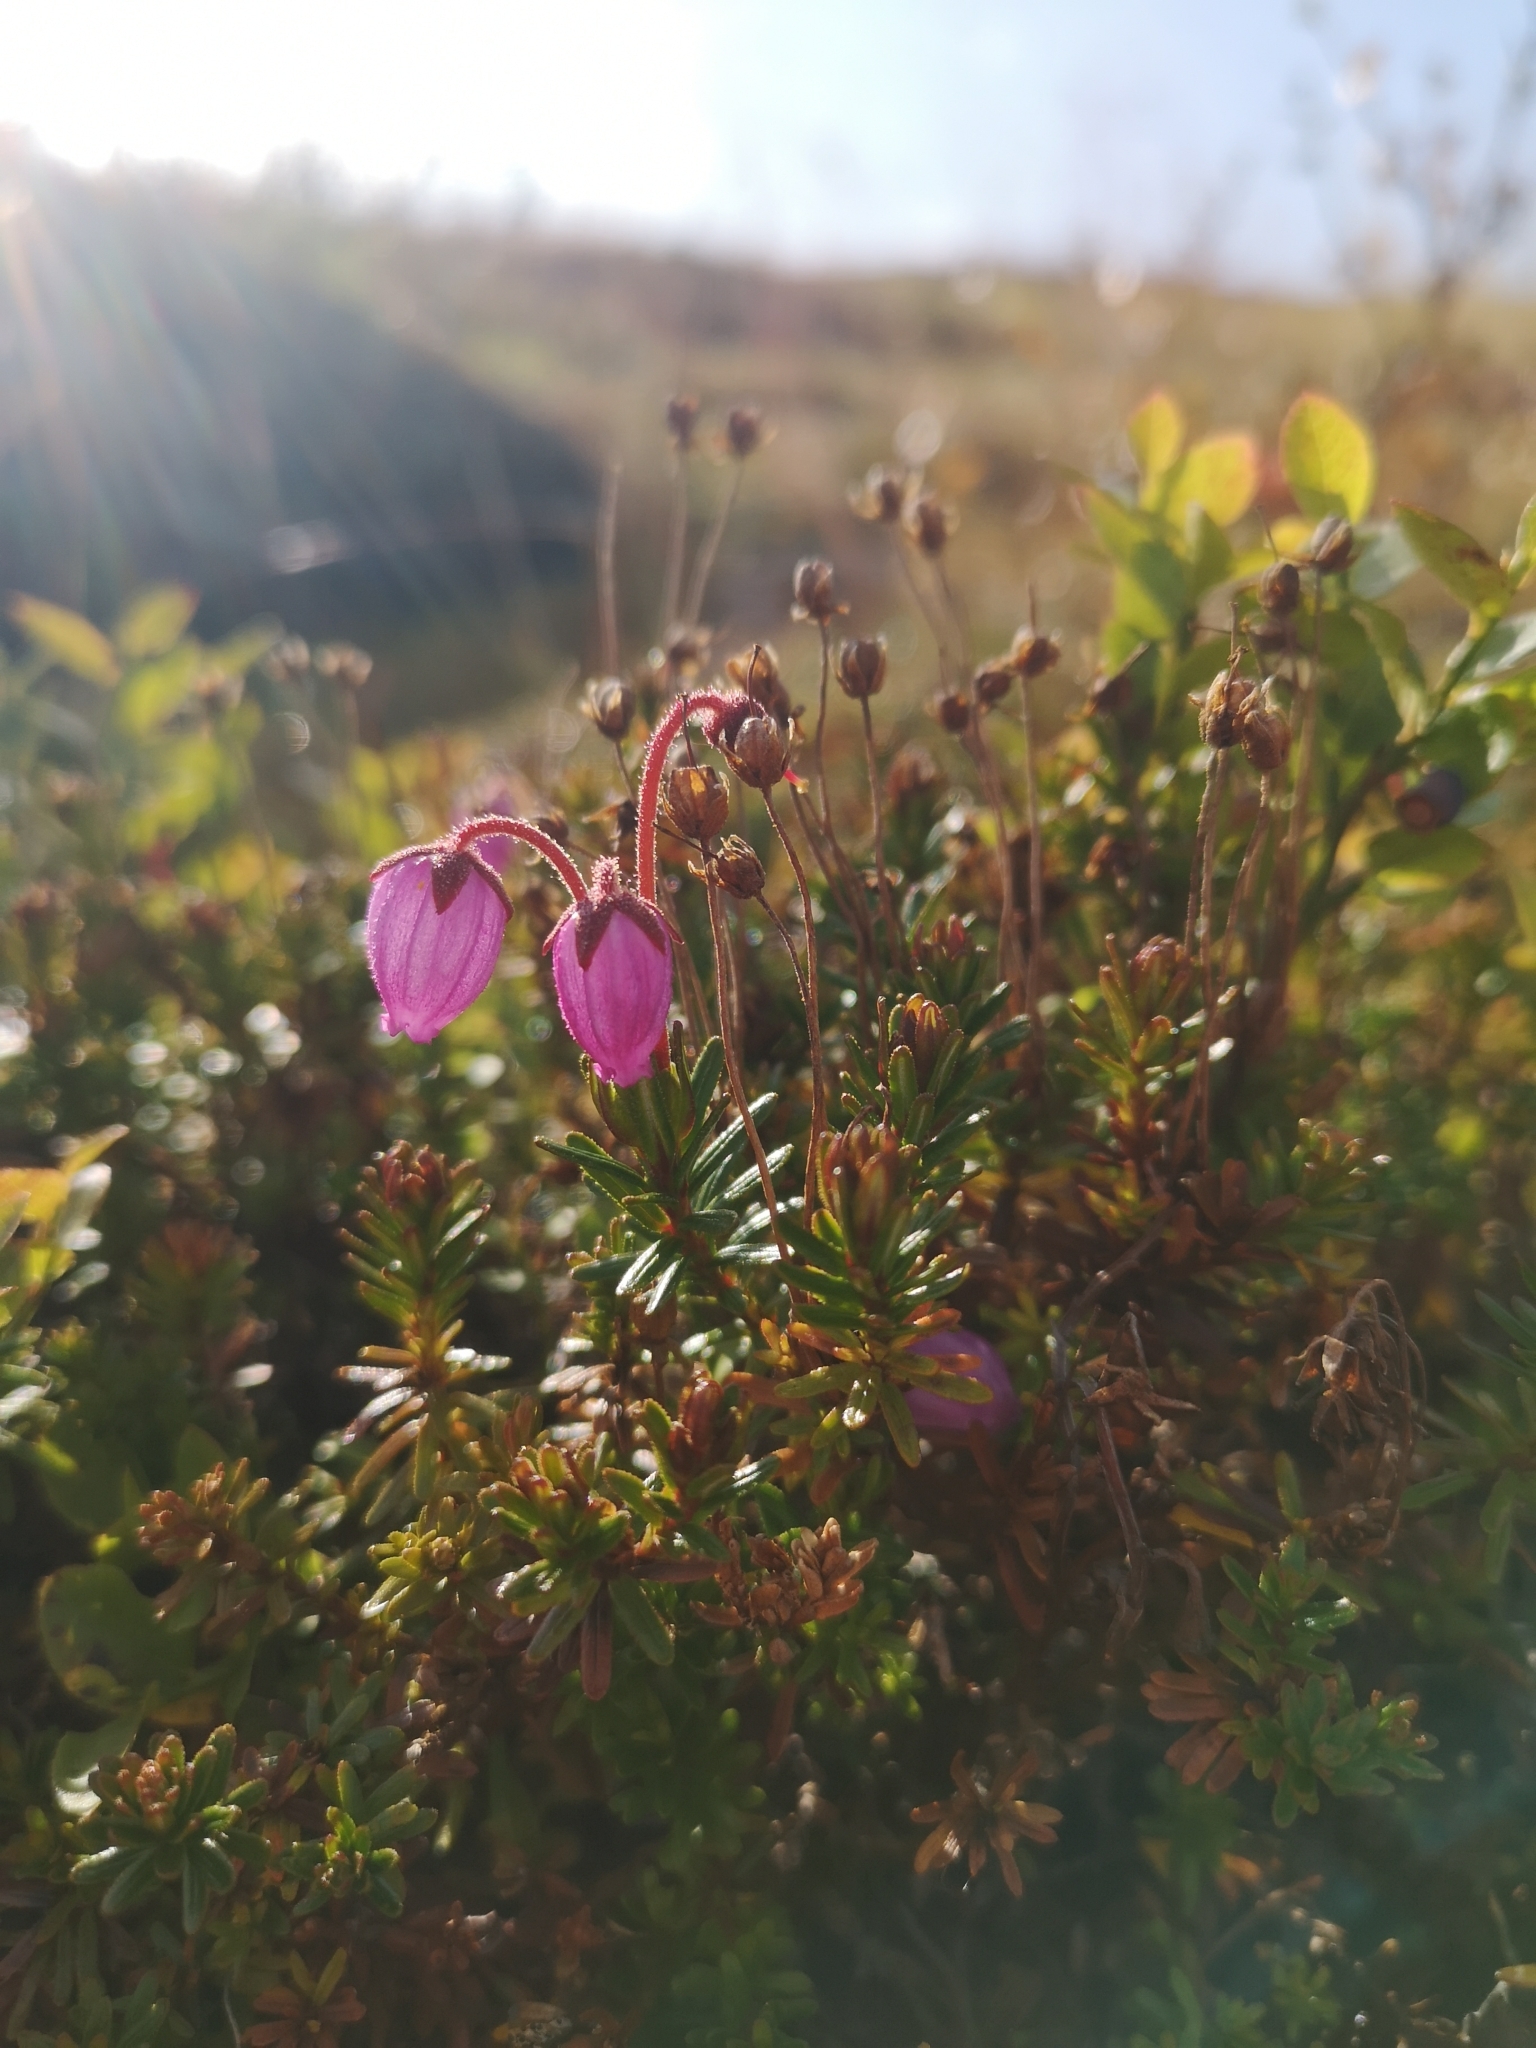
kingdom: Plantae
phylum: Tracheophyta
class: Magnoliopsida
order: Ericales
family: Ericaceae
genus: Phyllodoce
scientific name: Phyllodoce caerulea
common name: Blue heath
